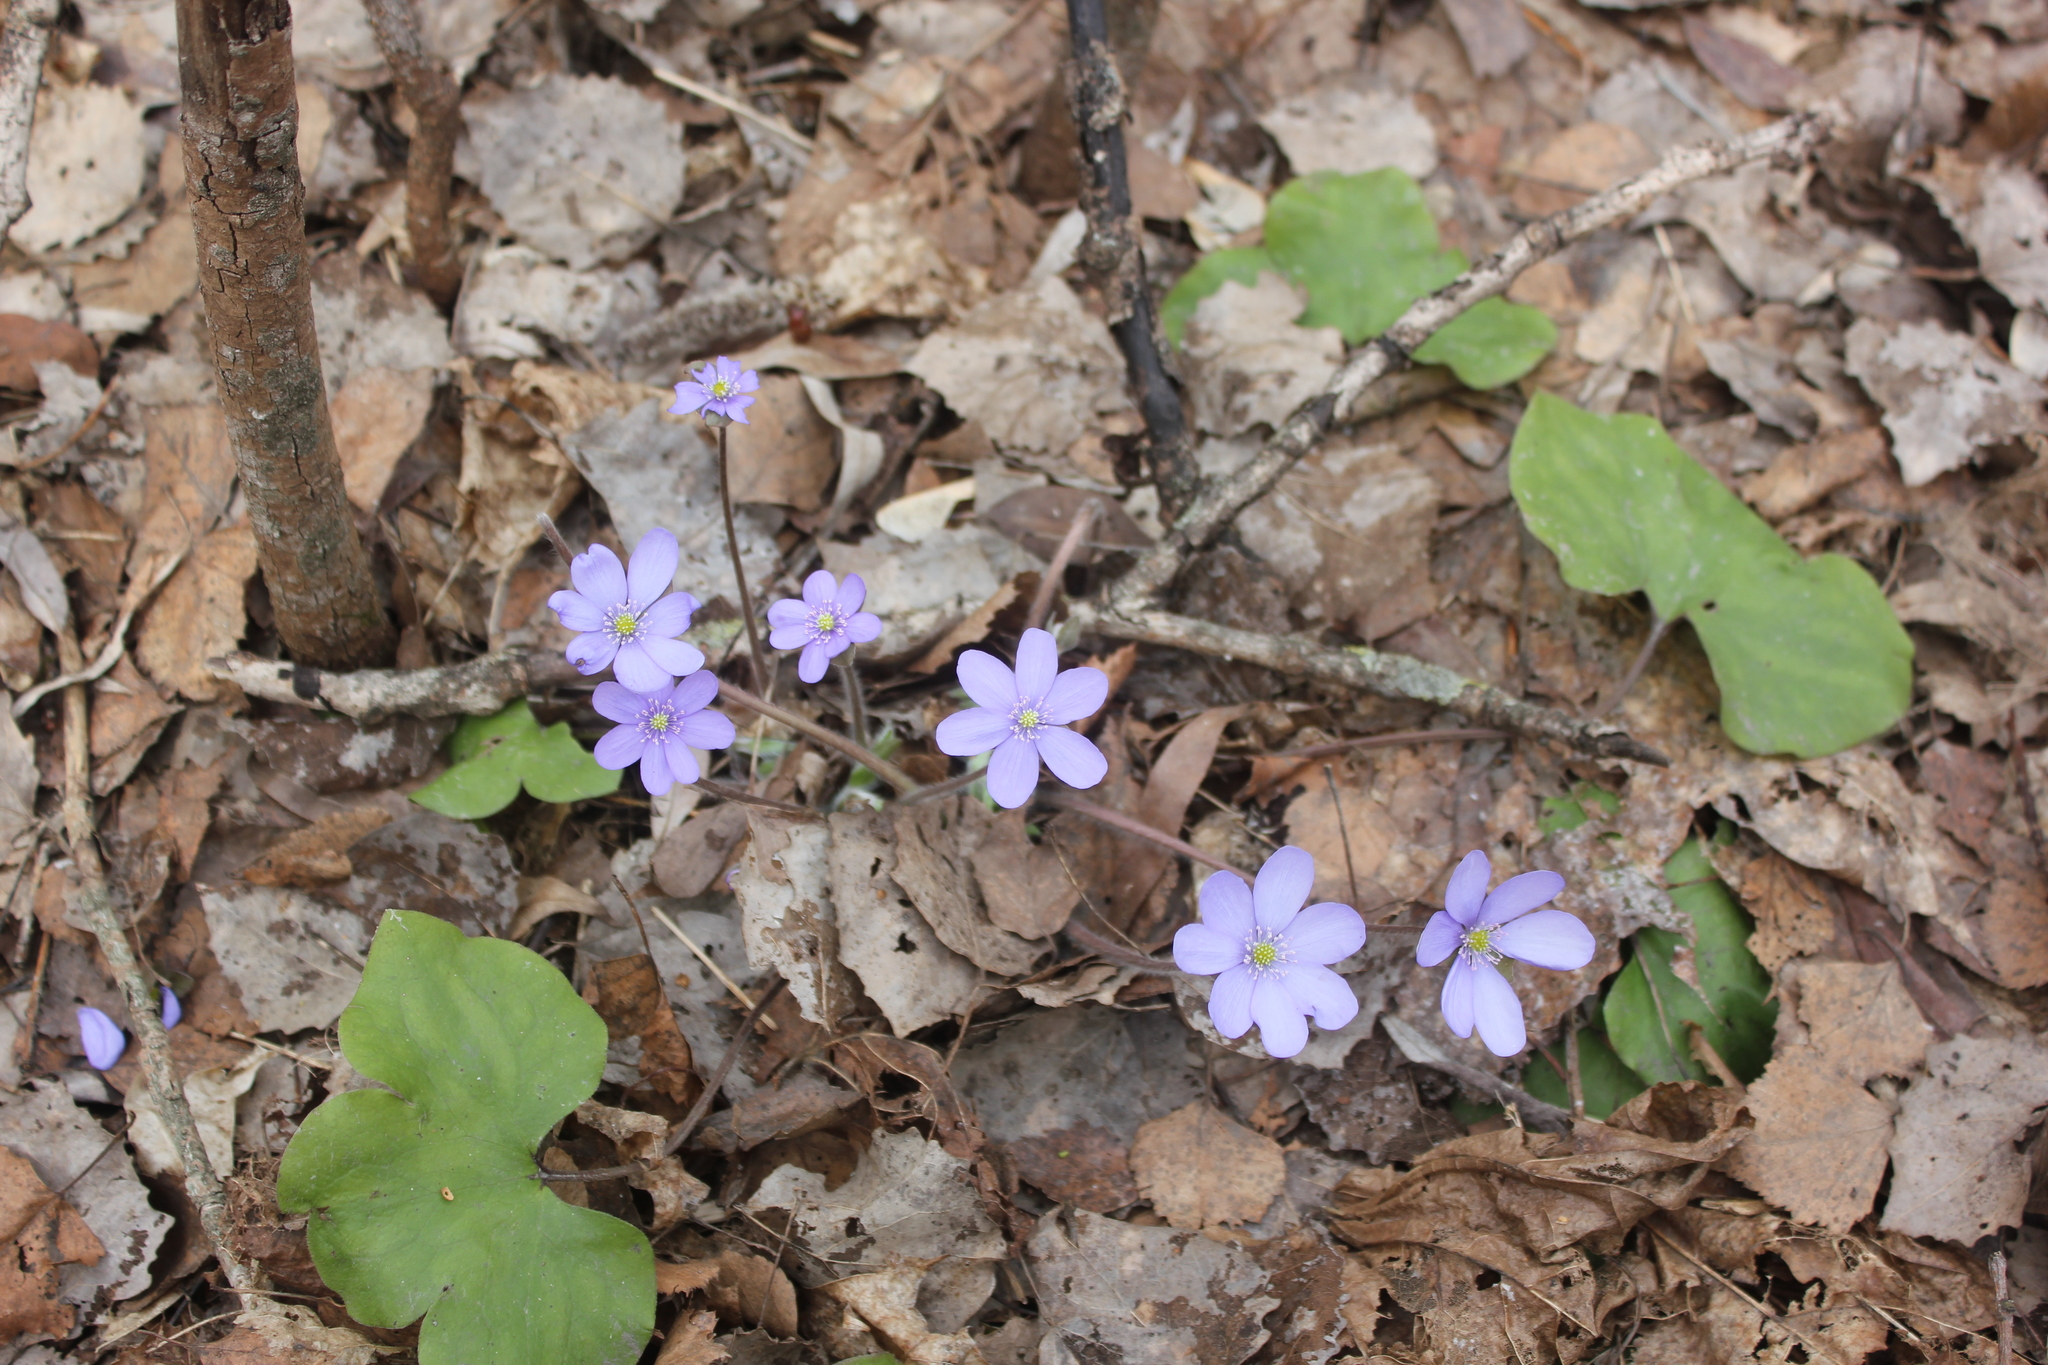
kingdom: Plantae
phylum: Tracheophyta
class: Magnoliopsida
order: Ranunculales
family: Ranunculaceae
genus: Hepatica
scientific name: Hepatica nobilis
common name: Liverleaf
